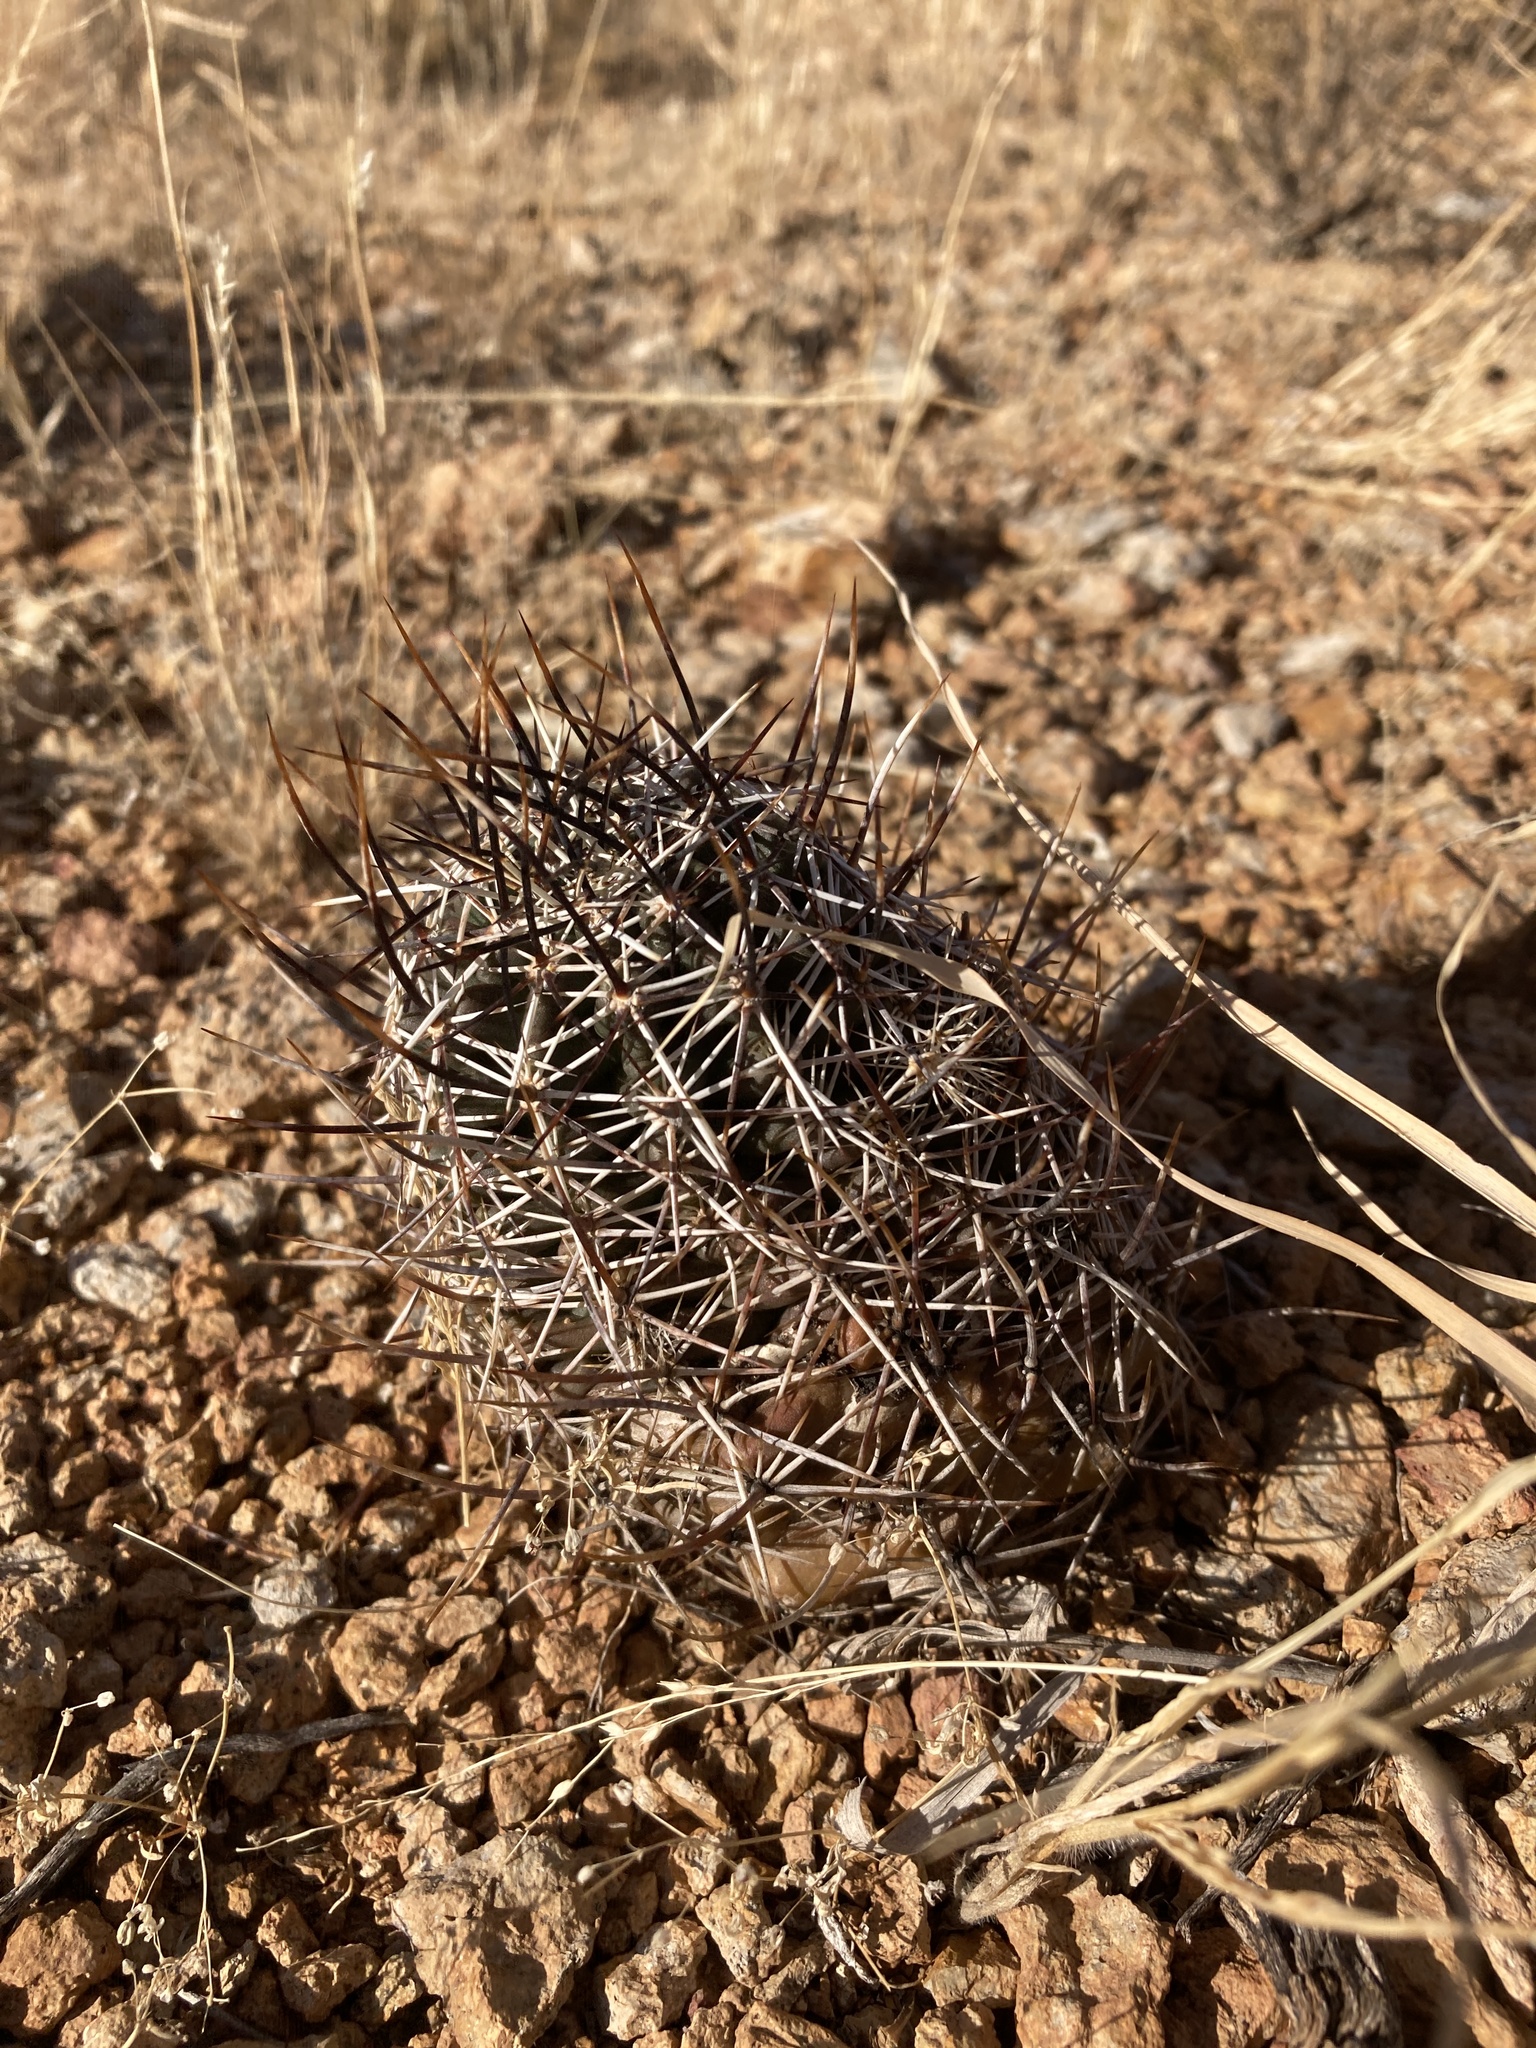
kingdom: Plantae
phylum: Tracheophyta
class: Magnoliopsida
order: Caryophyllales
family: Cactaceae
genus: Echinocereus
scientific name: Echinocereus fendleri
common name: Fendler's hedgehog cactus
